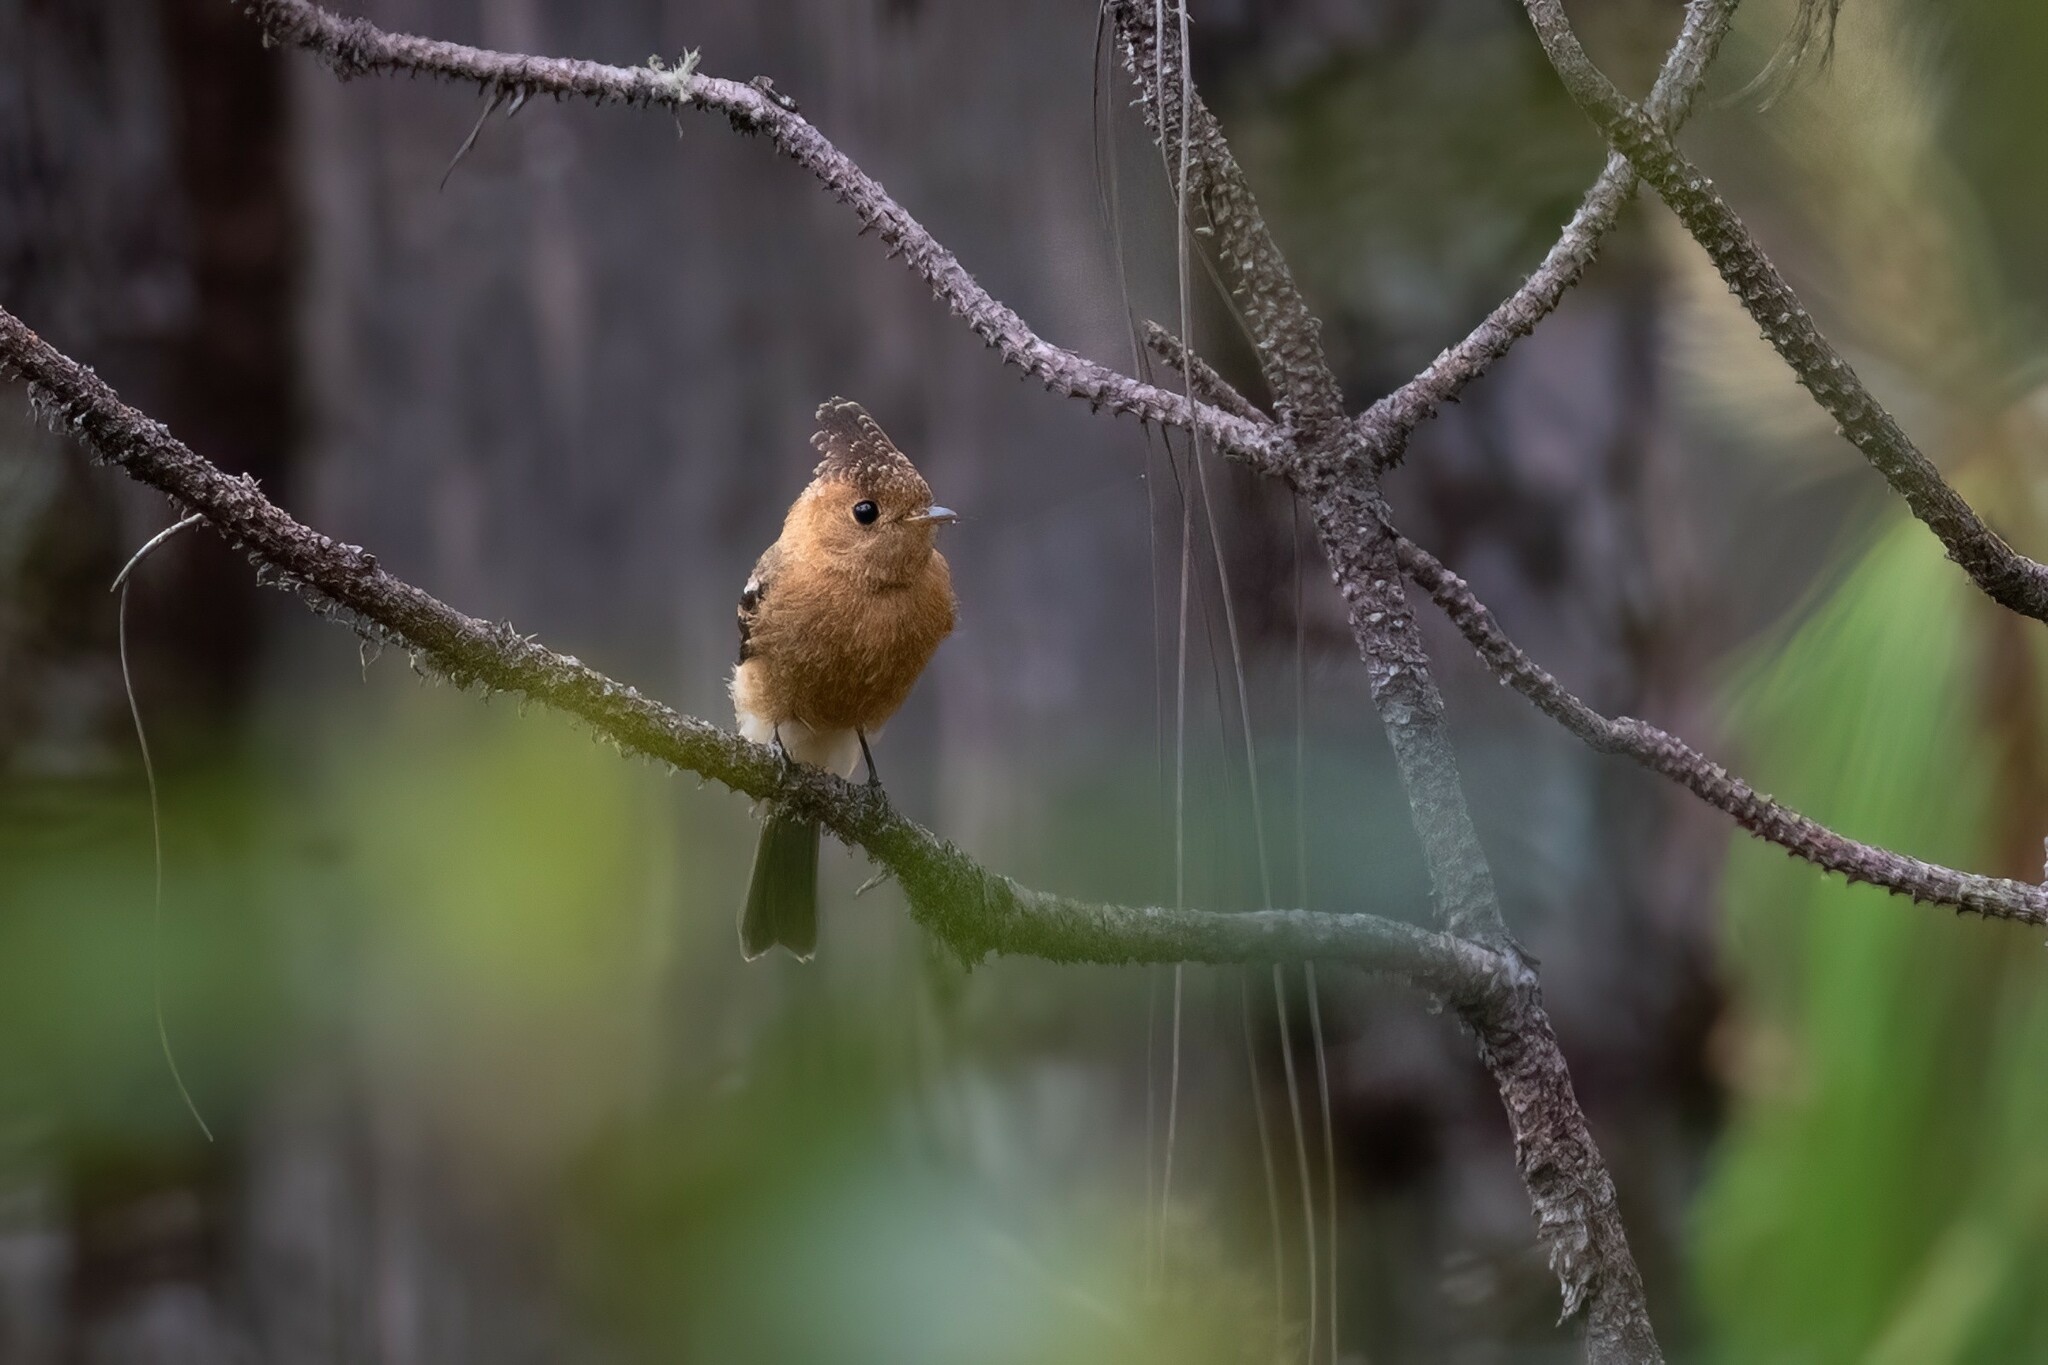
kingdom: Animalia
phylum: Chordata
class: Aves
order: Passeriformes
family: Tyrannidae
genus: Mitrephanes
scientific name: Mitrephanes phaeocercus
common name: Northern tufted flycatcher
